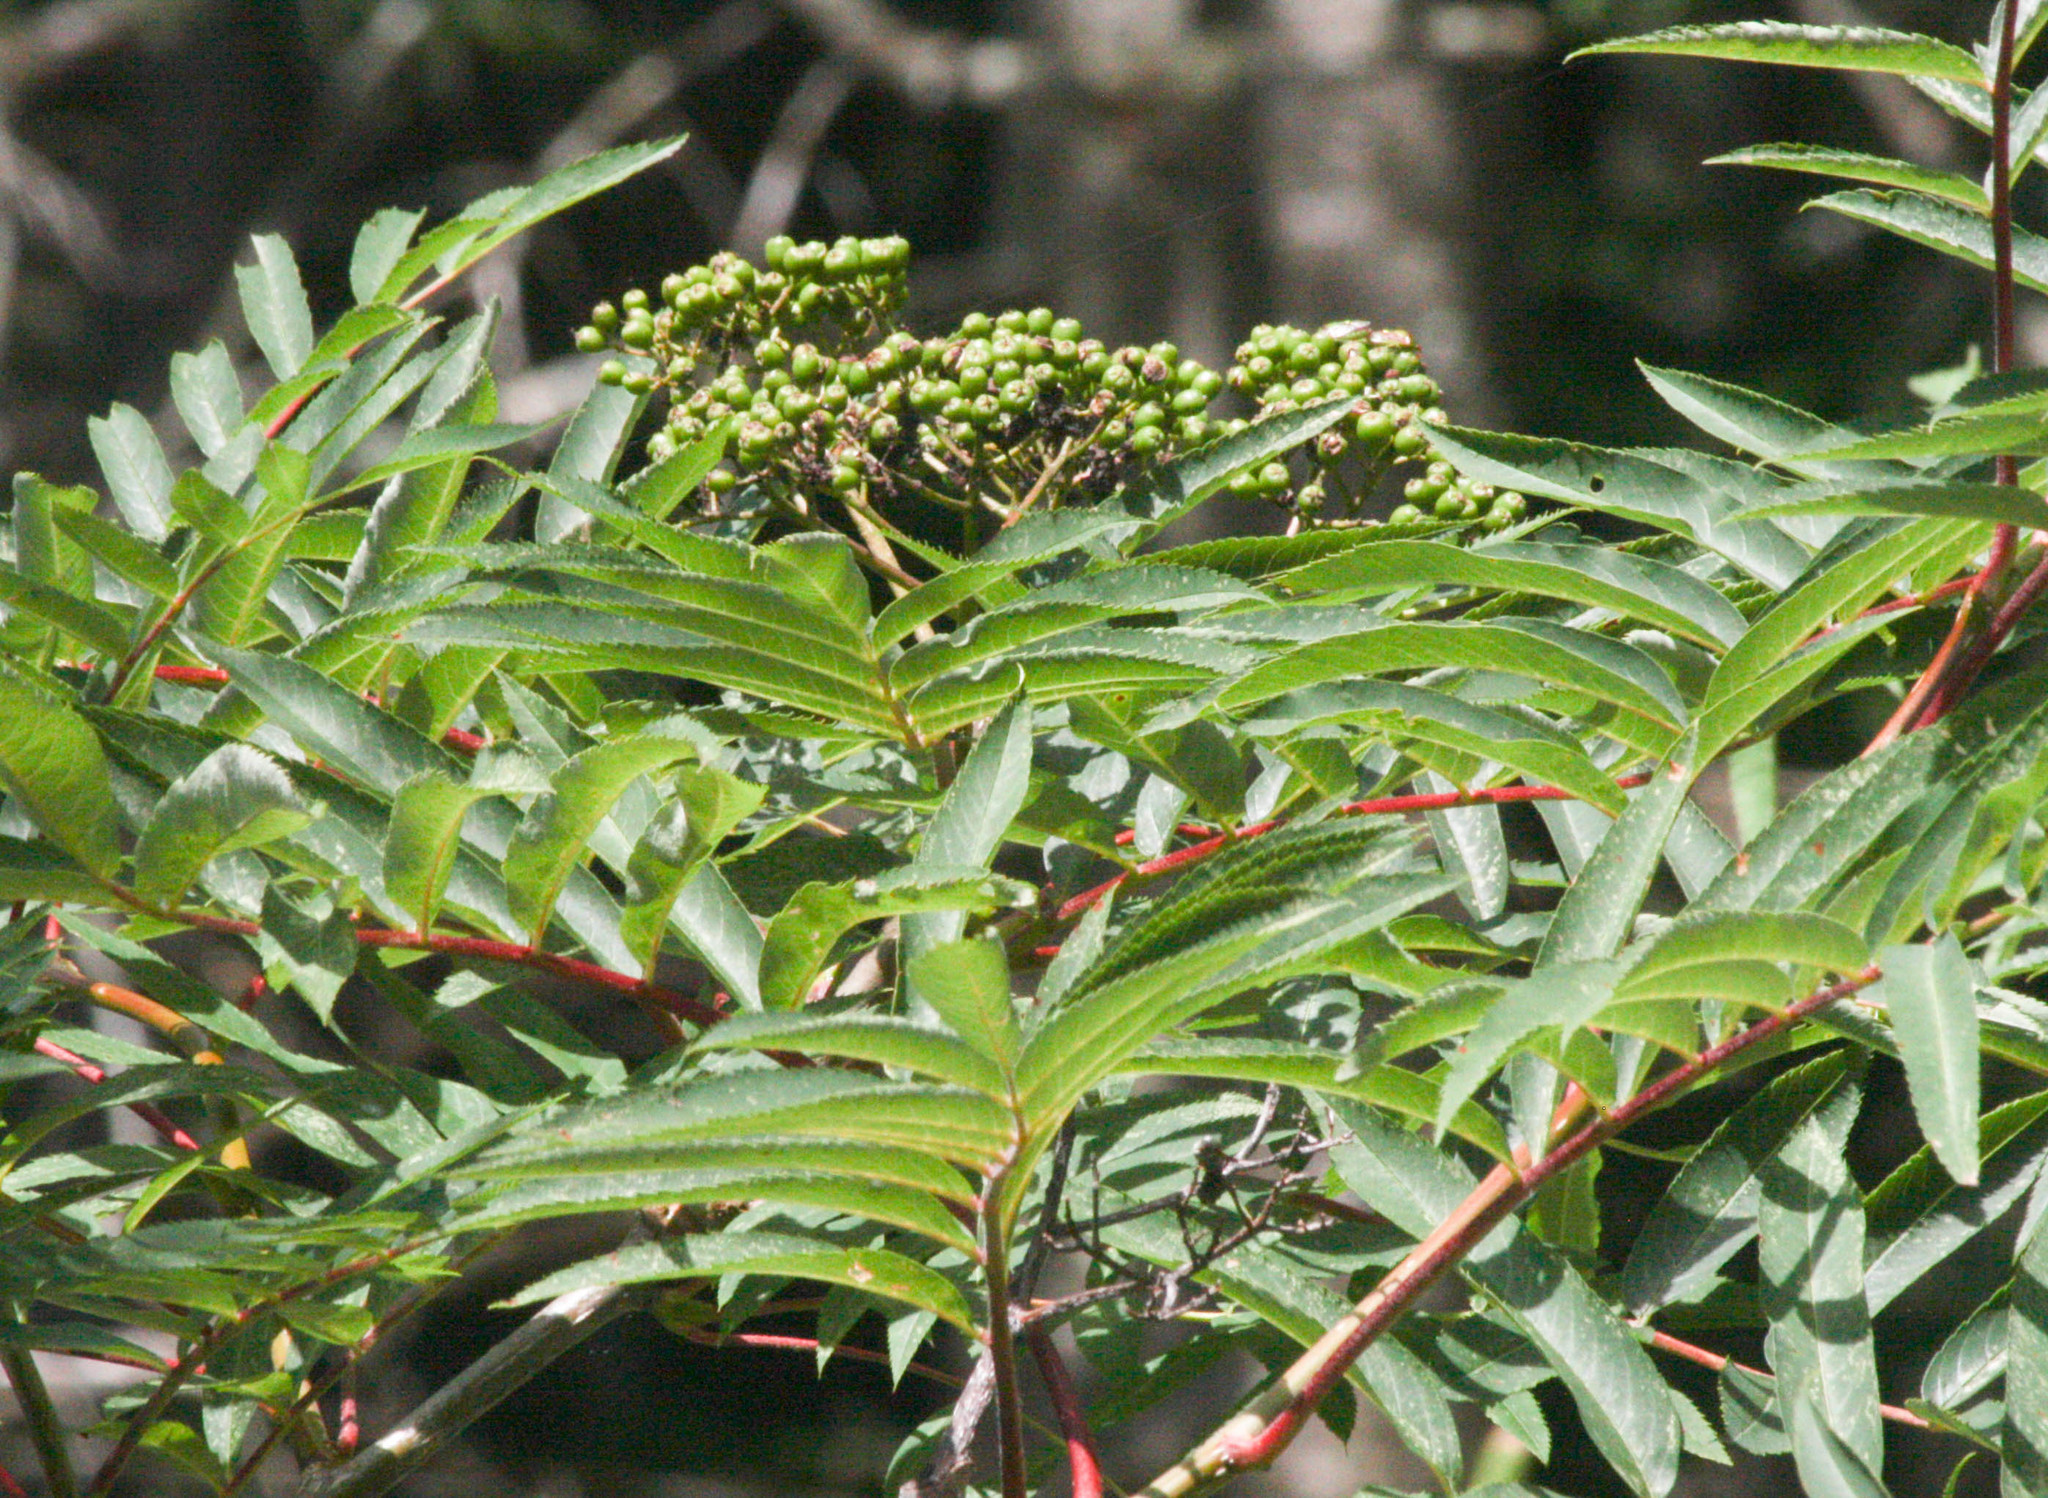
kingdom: Plantae
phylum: Tracheophyta
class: Magnoliopsida
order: Rosales
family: Rosaceae
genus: Sorbus
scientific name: Sorbus americana
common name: American mountain-ash
